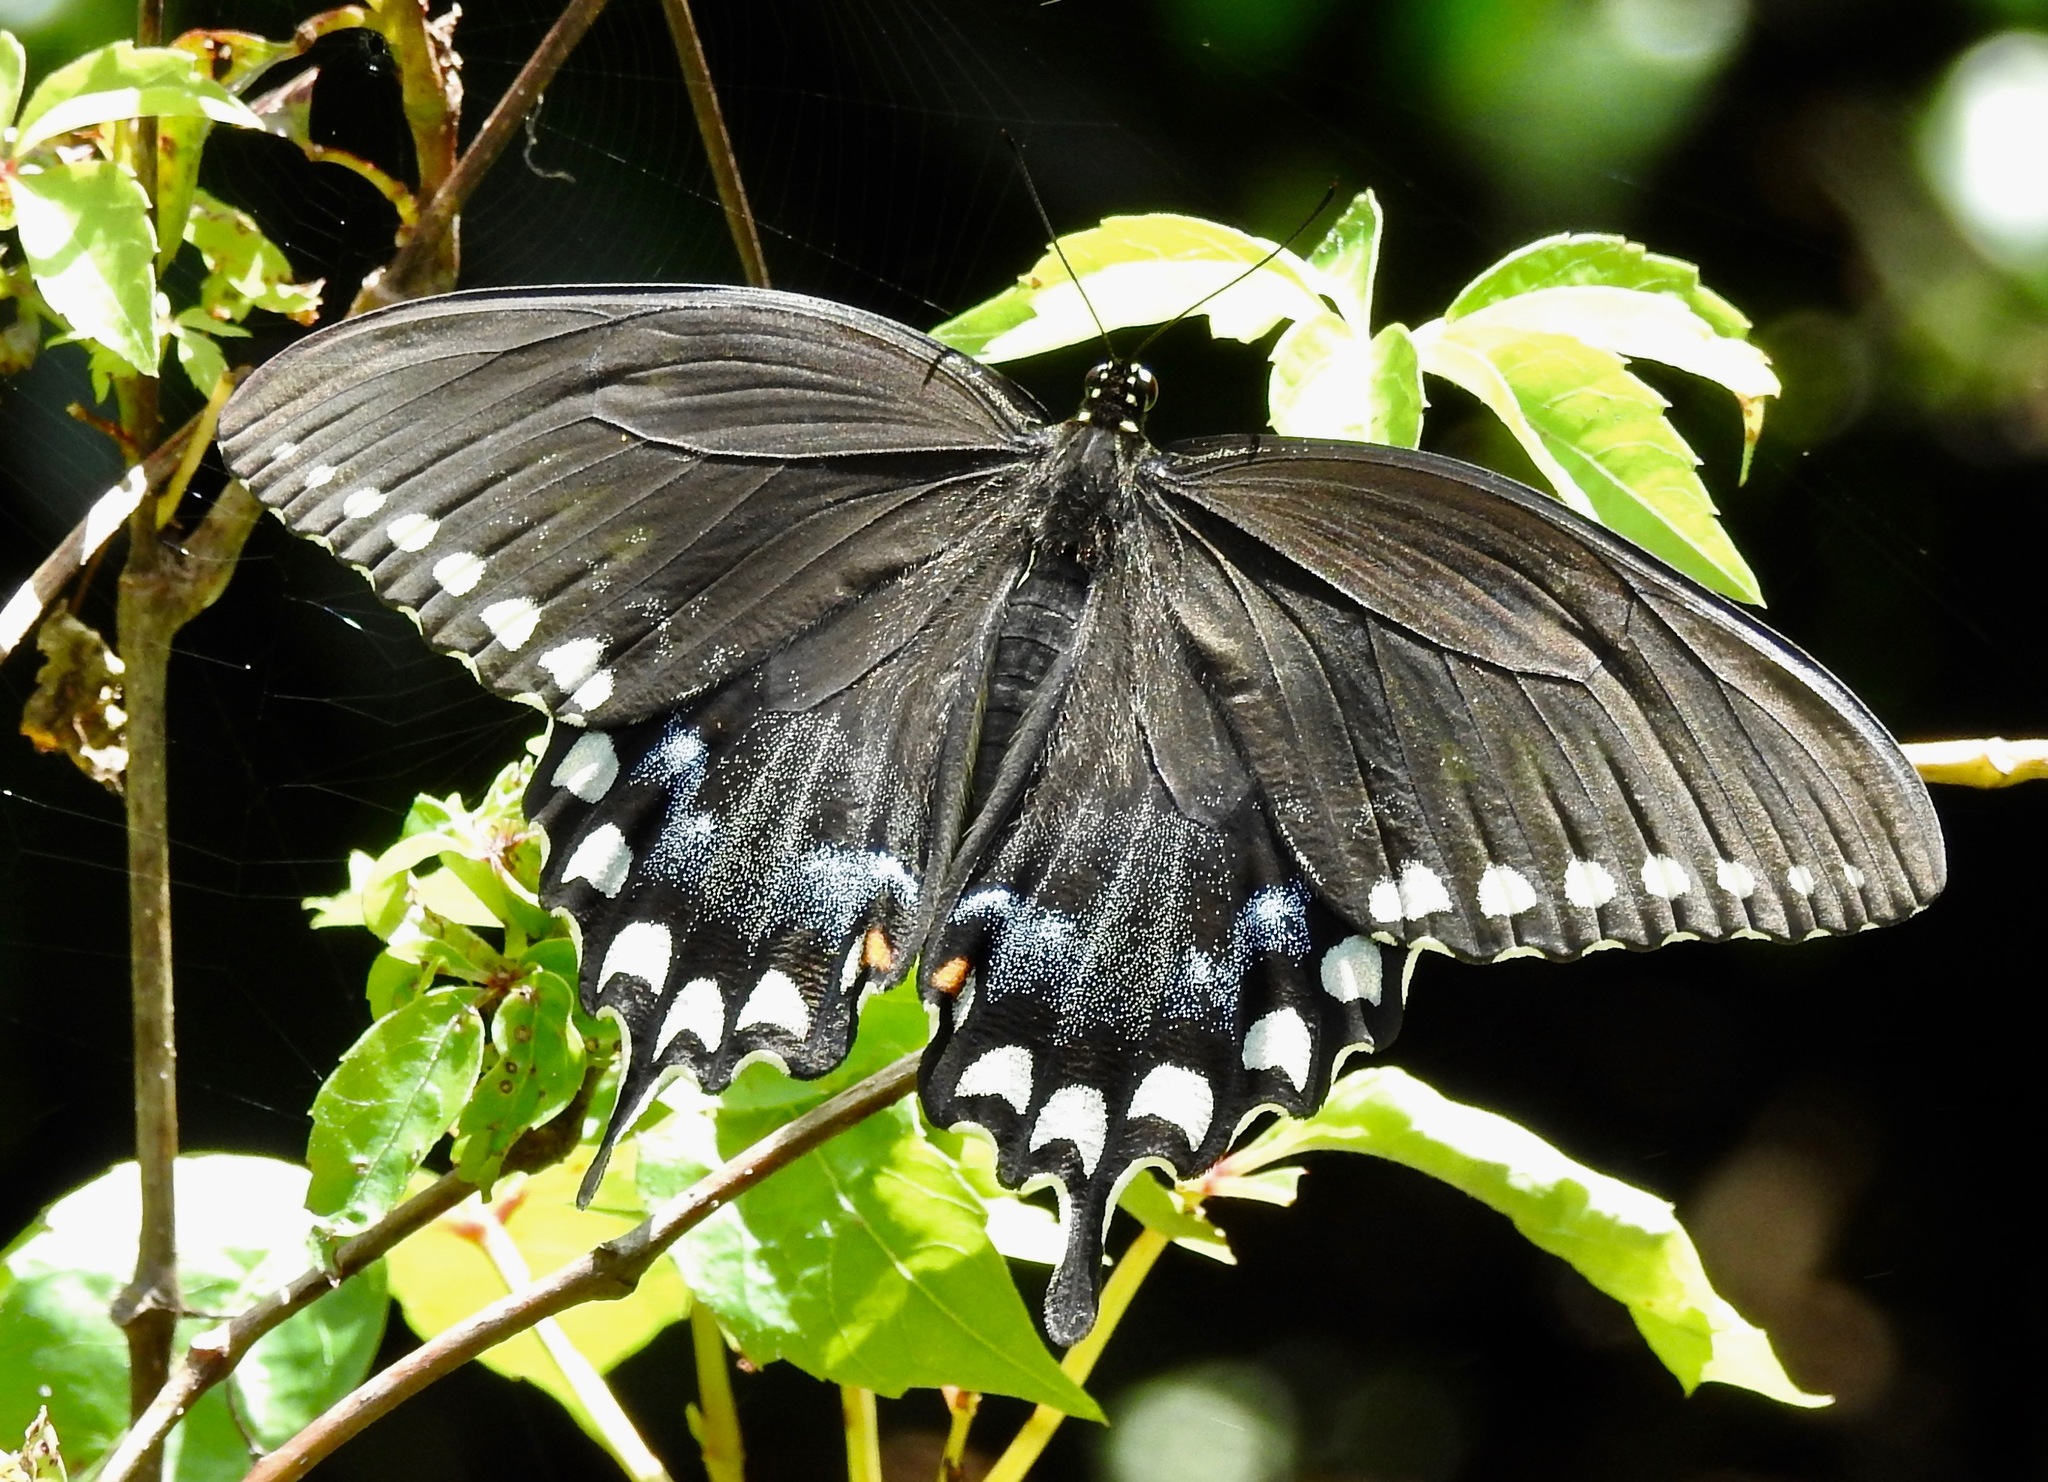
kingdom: Animalia
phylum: Arthropoda
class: Insecta
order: Lepidoptera
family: Papilionidae
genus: Papilio
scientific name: Papilio troilus
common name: Spicebush swallowtail
